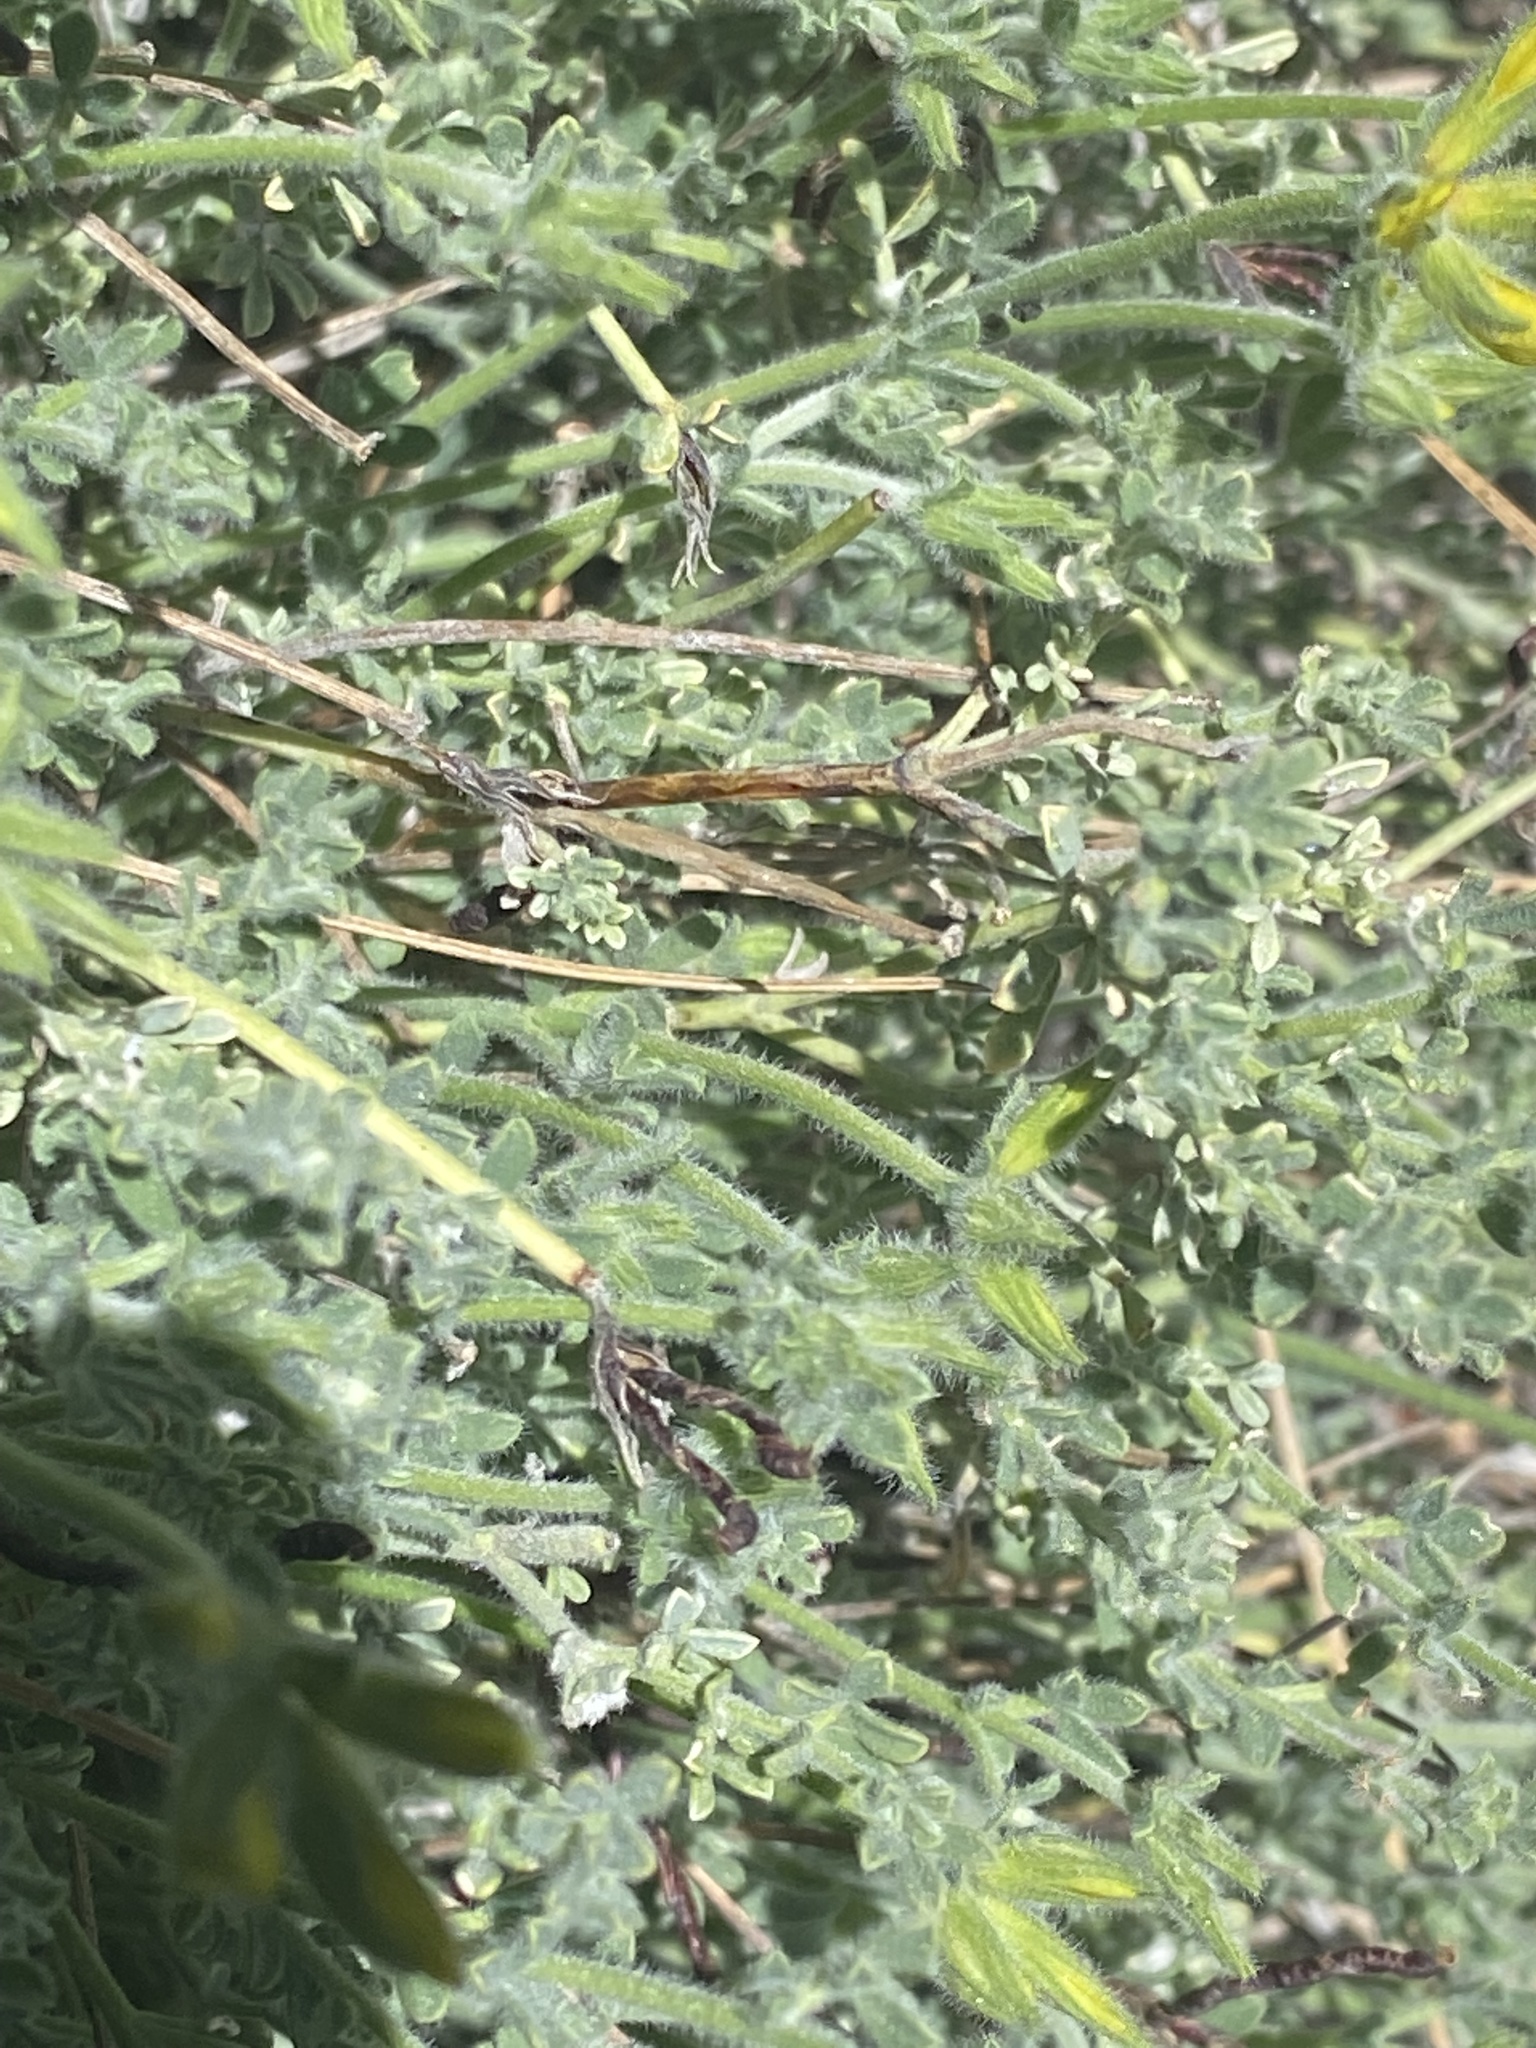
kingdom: Plantae
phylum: Tracheophyta
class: Magnoliopsida
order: Fabales
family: Fabaceae
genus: Lotus
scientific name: Lotus campylocladus
